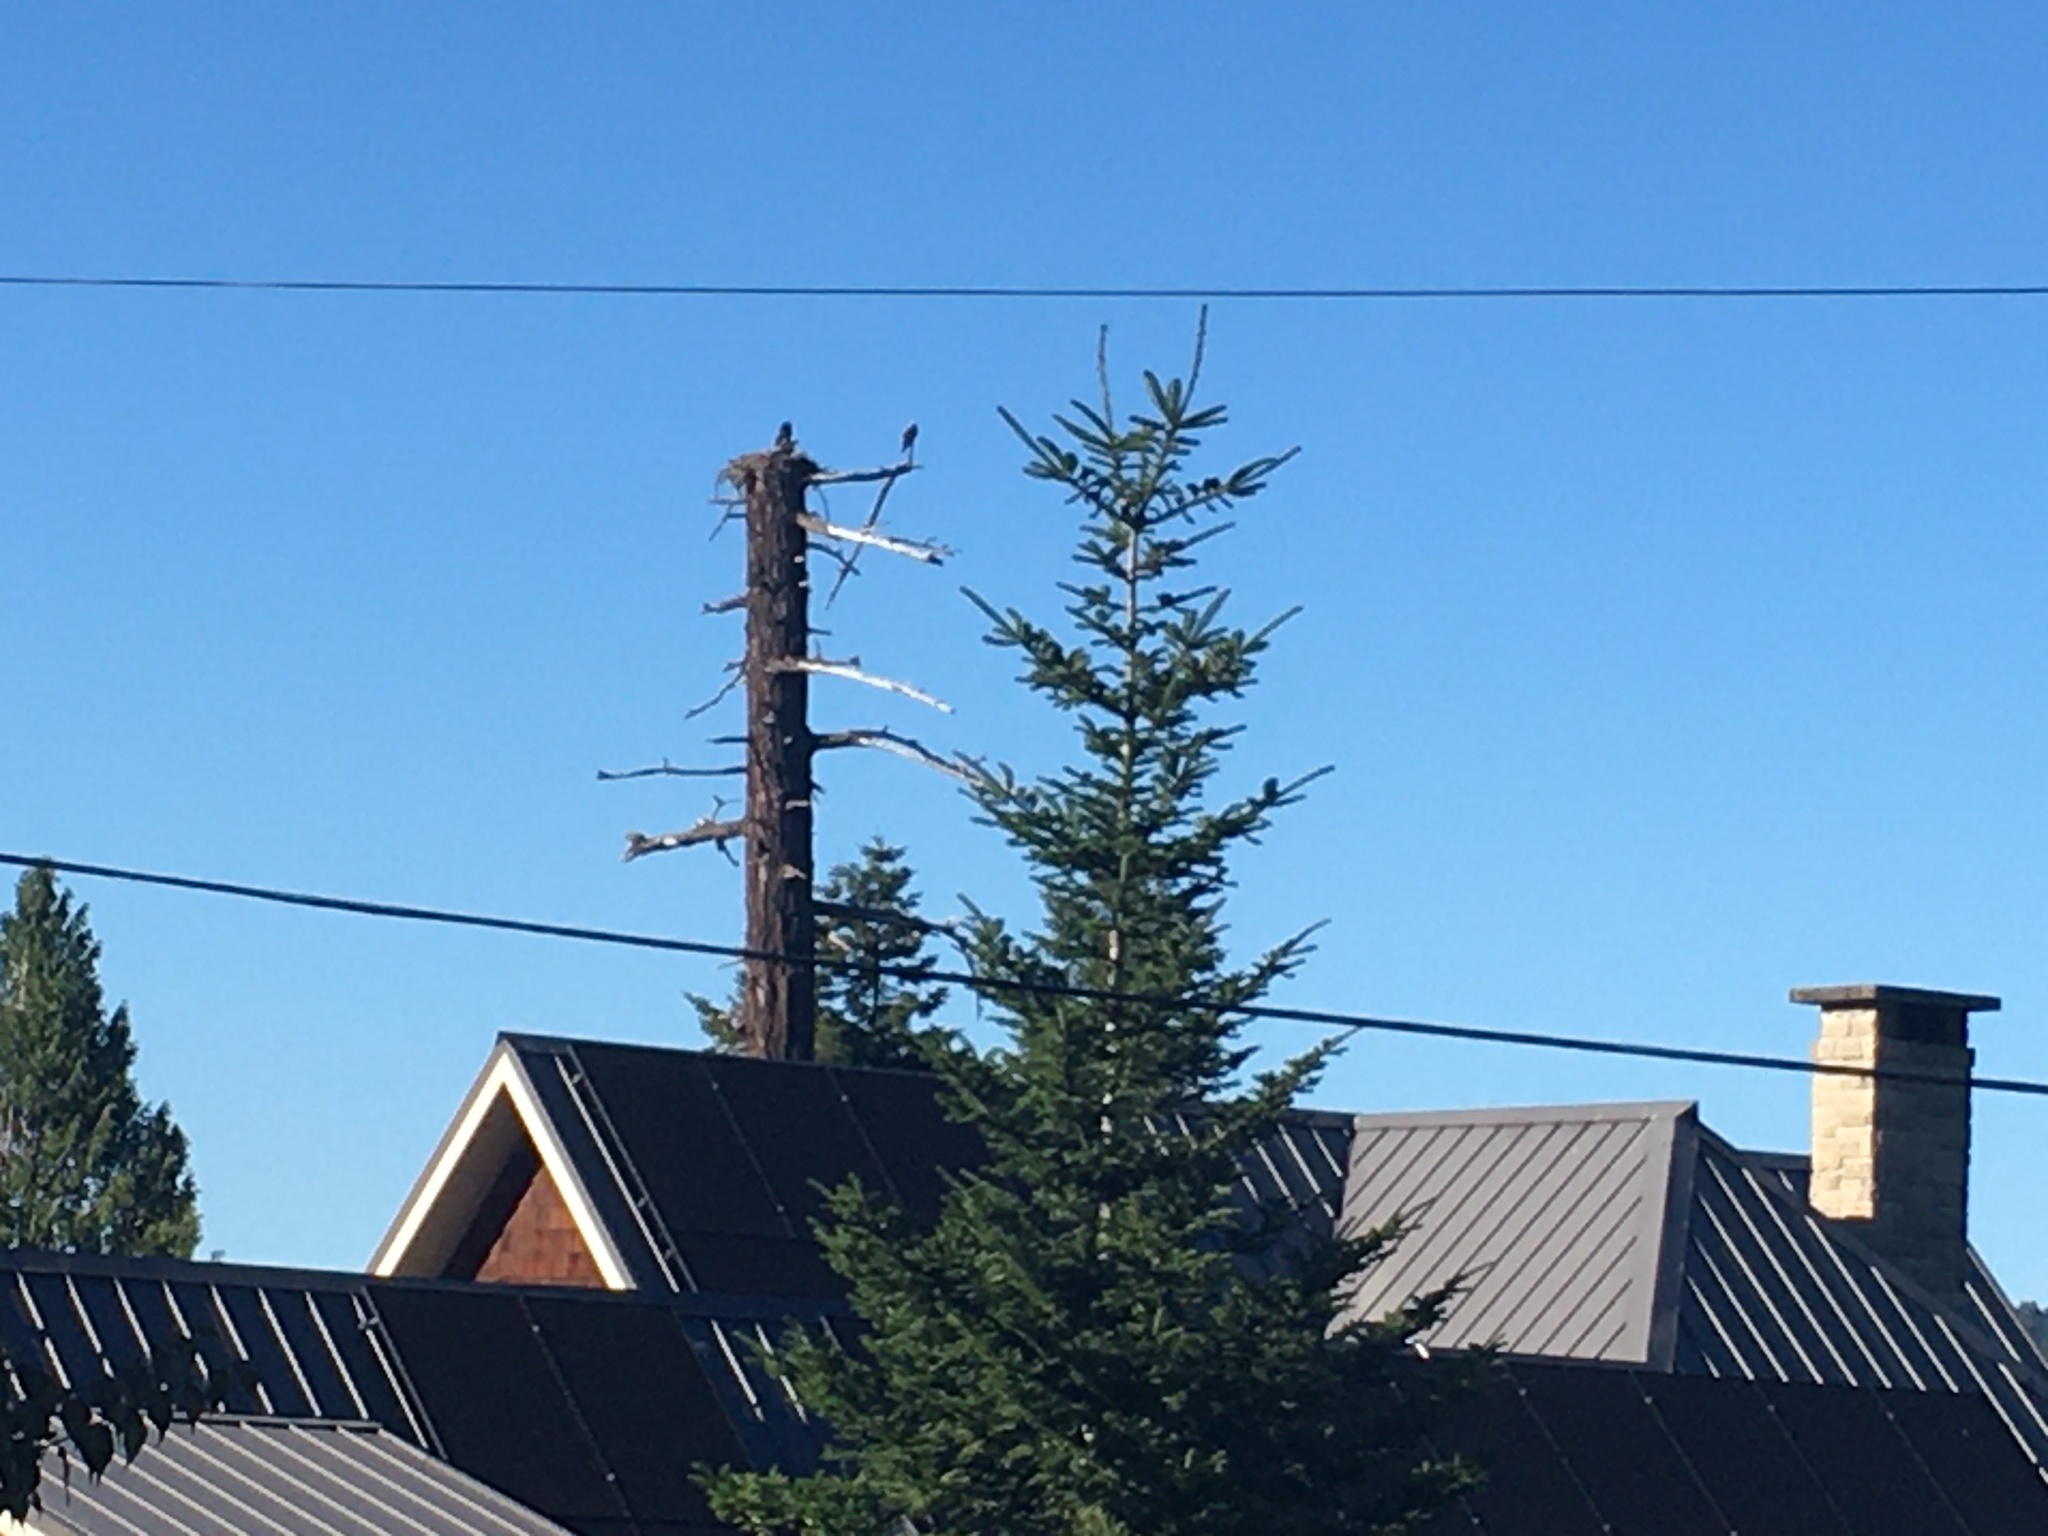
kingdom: Animalia
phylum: Chordata
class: Aves
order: Accipitriformes
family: Pandionidae
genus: Pandion
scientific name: Pandion haliaetus
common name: Osprey
